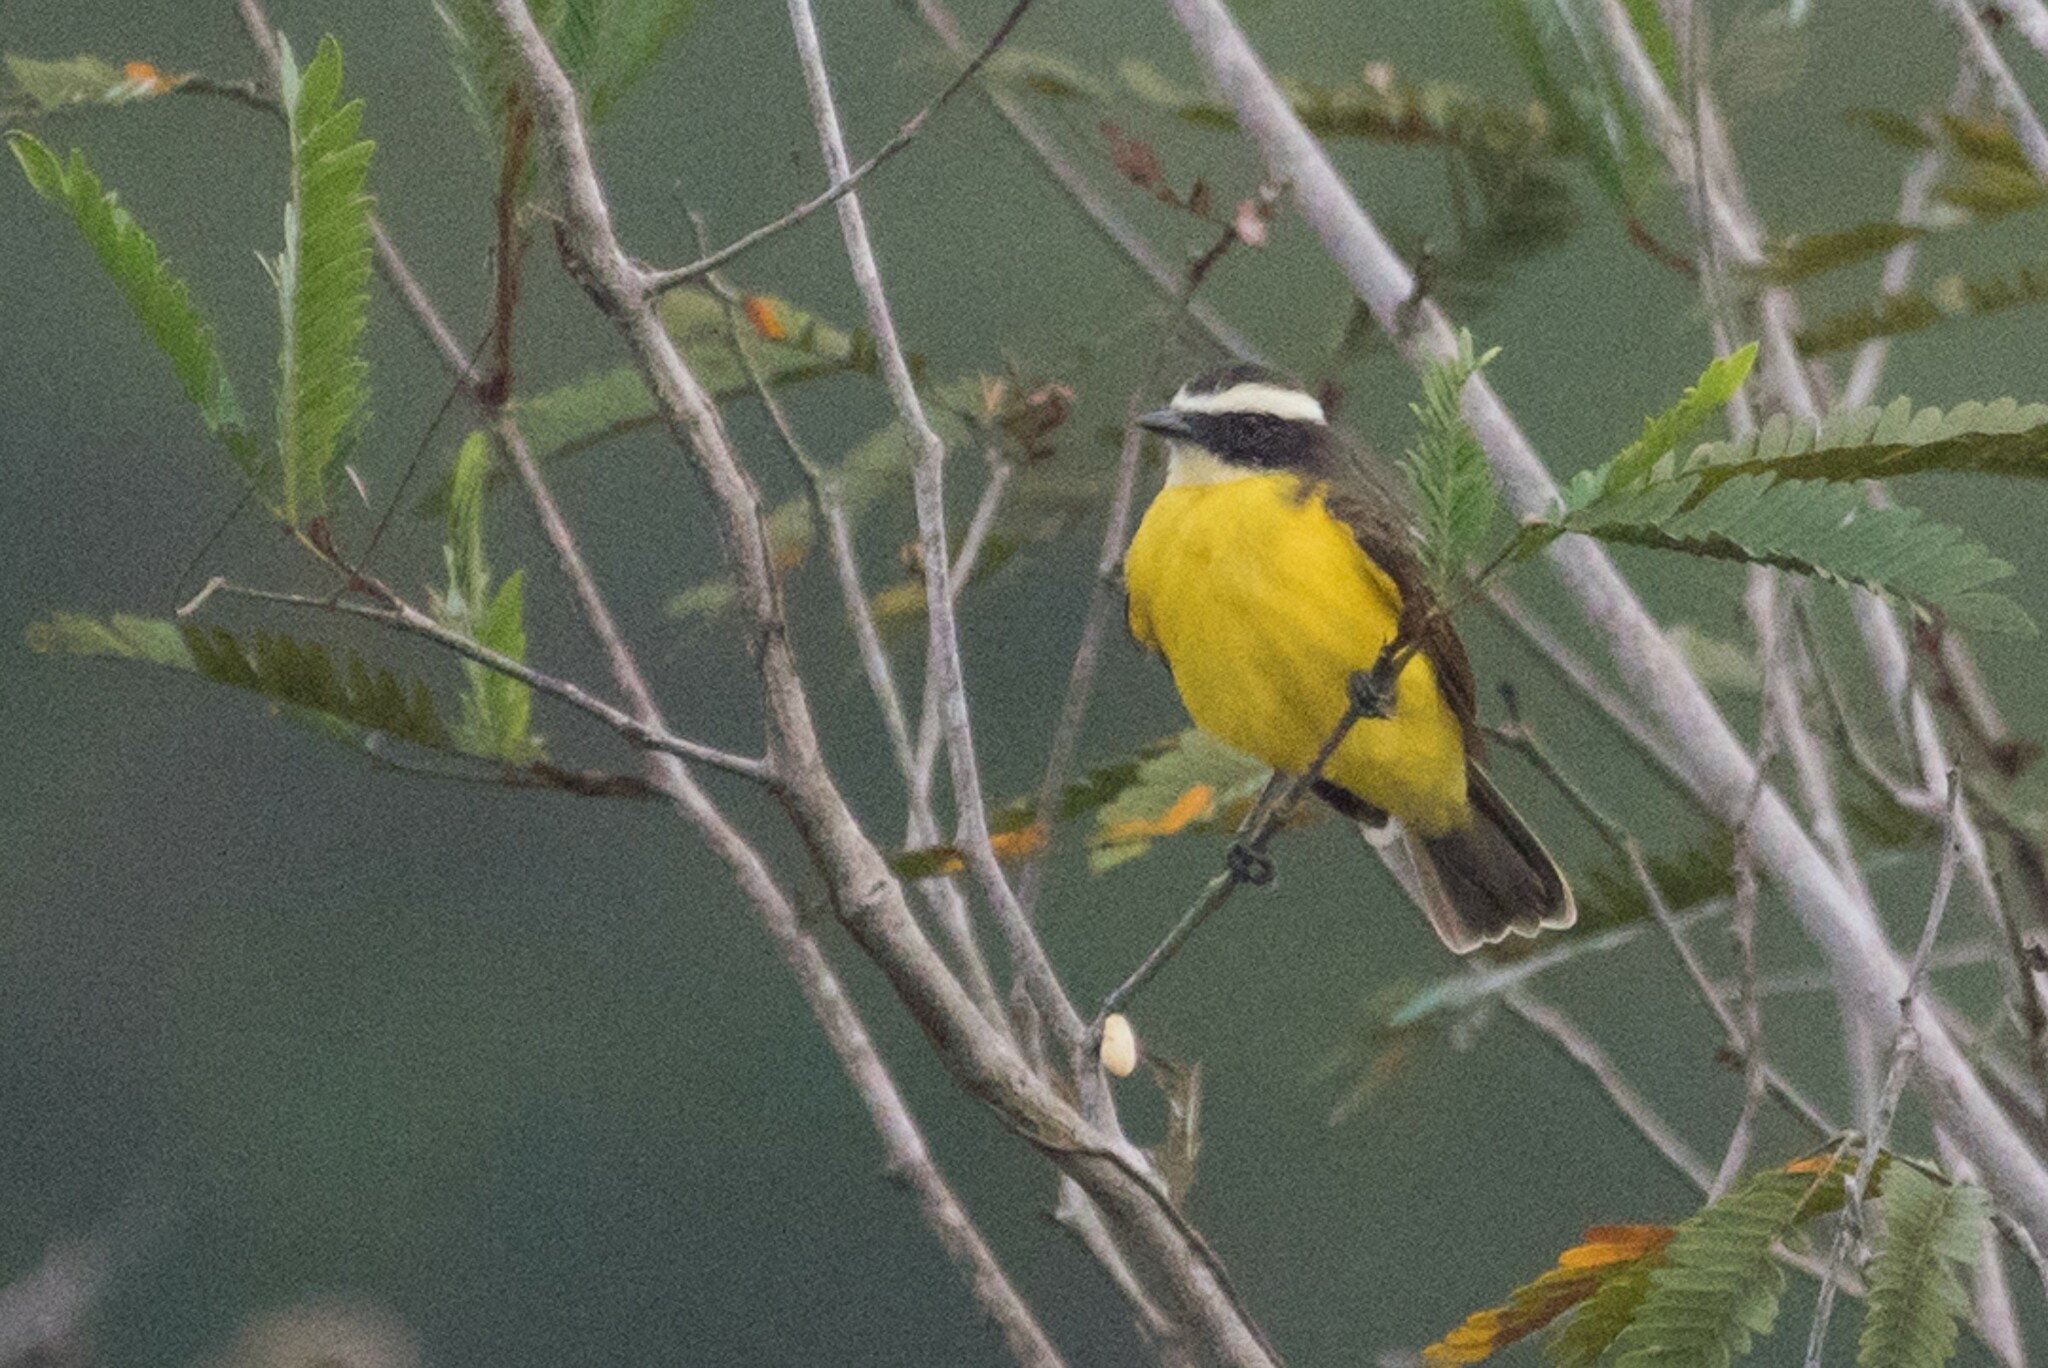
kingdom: Animalia
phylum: Chordata
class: Aves
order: Passeriformes
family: Tyrannidae
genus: Myiozetetes
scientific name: Myiozetetes cayanensis
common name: Rusty-margined flycatcher
